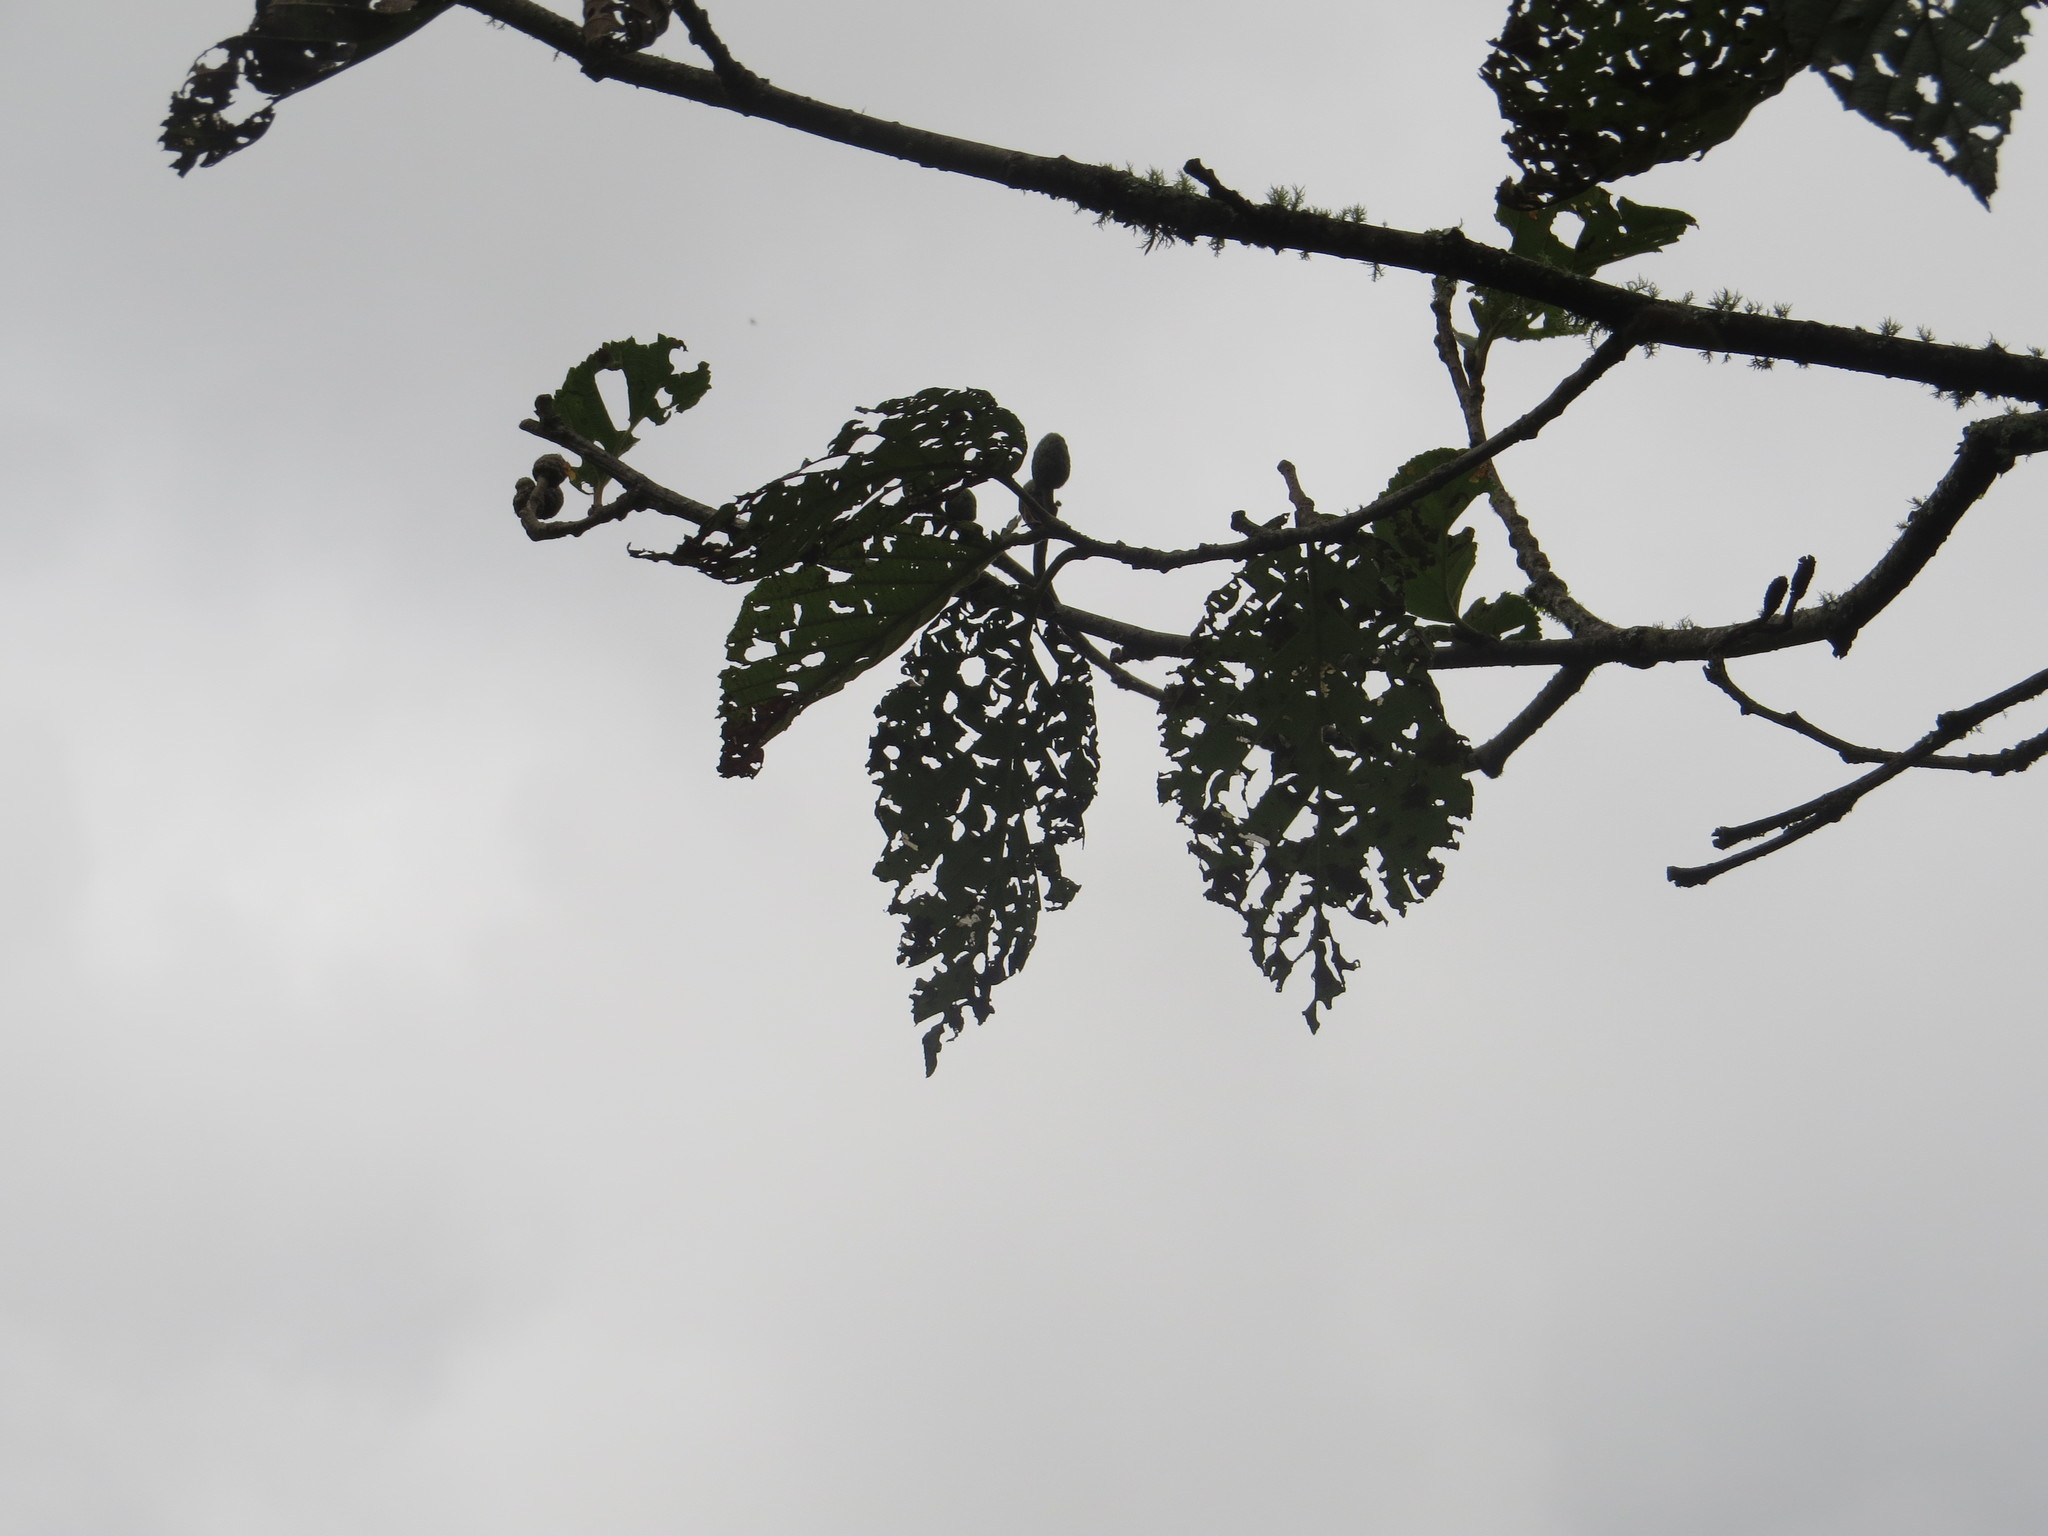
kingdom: Plantae
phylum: Tracheophyta
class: Magnoliopsida
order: Fagales
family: Betulaceae
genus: Alnus
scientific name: Alnus acuminata
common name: Alder
